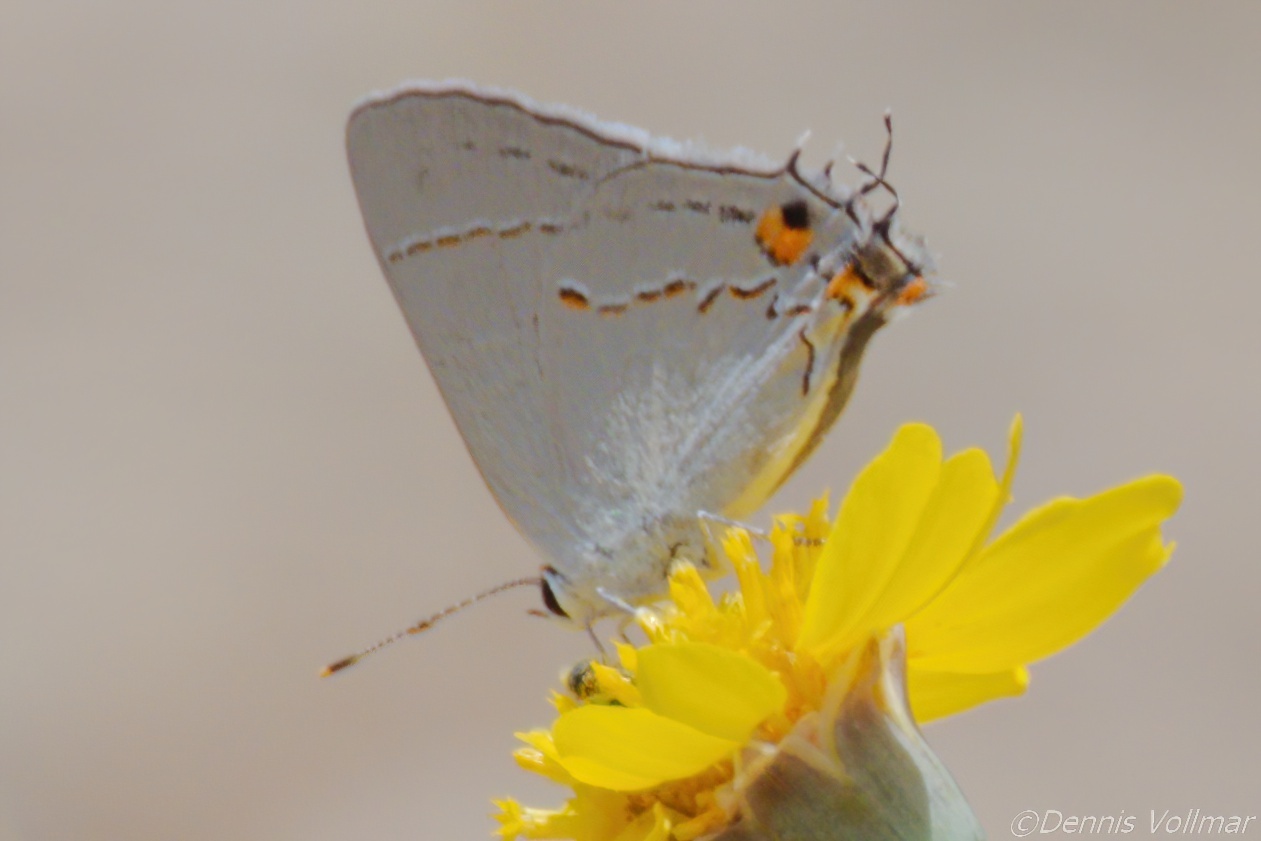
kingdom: Animalia
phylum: Arthropoda
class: Insecta
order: Lepidoptera
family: Lycaenidae
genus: Strymon
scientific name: Strymon melinus
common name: Gray hairstreak
